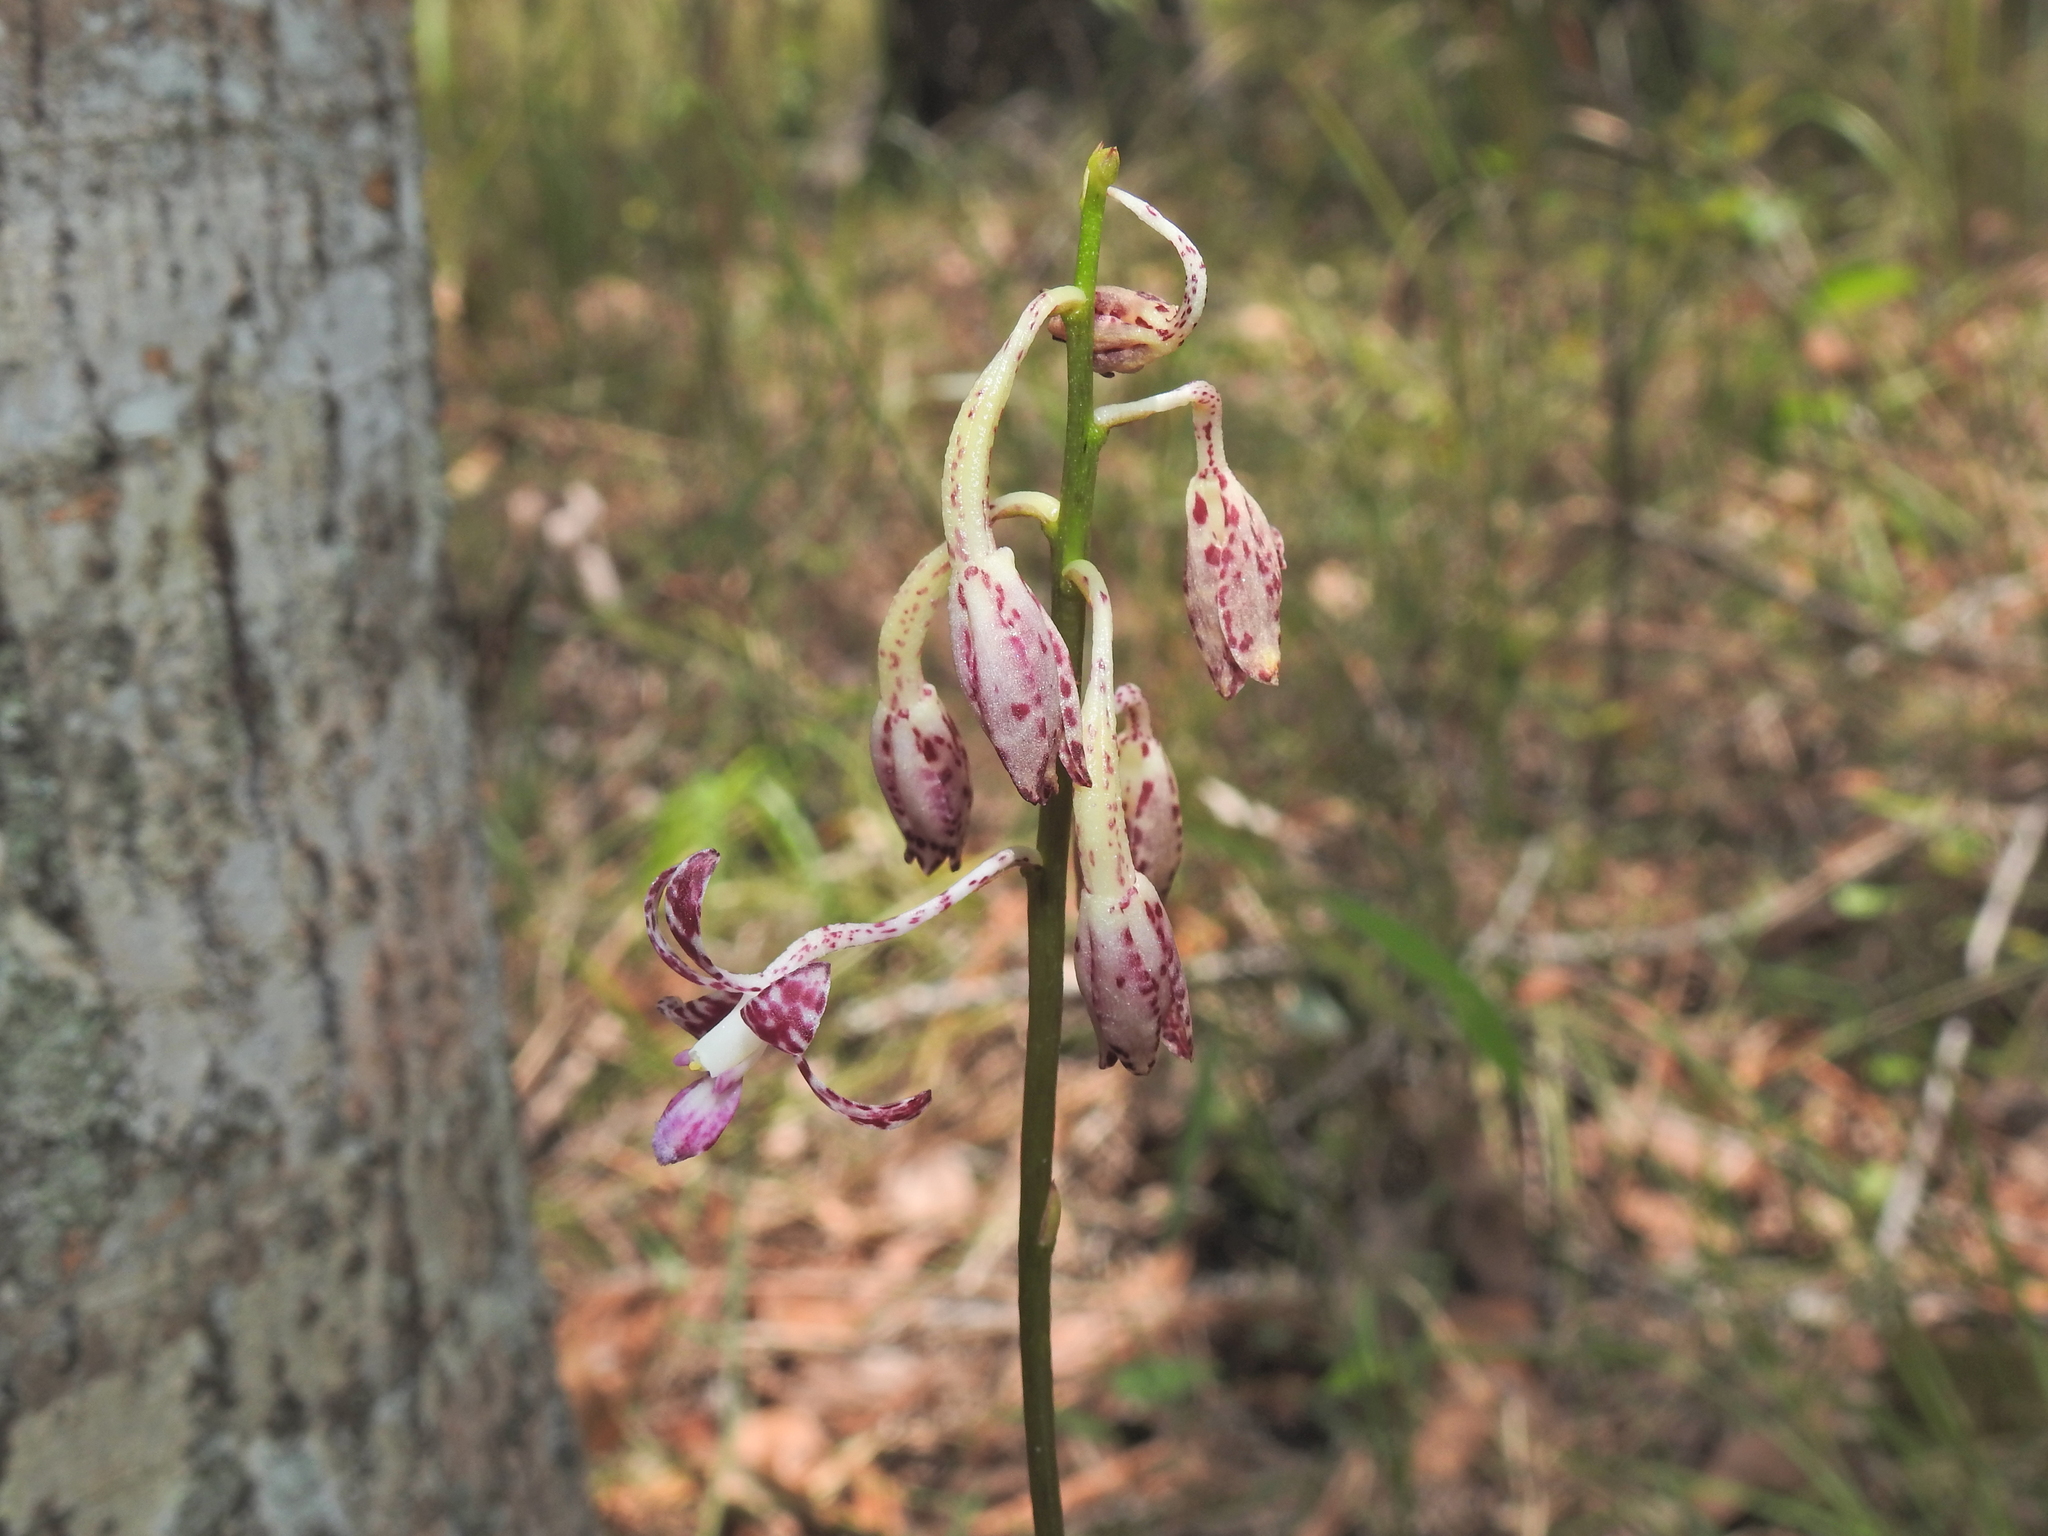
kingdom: Plantae
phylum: Tracheophyta
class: Liliopsida
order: Asparagales
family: Orchidaceae
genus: Dipodium
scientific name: Dipodium variegatum
